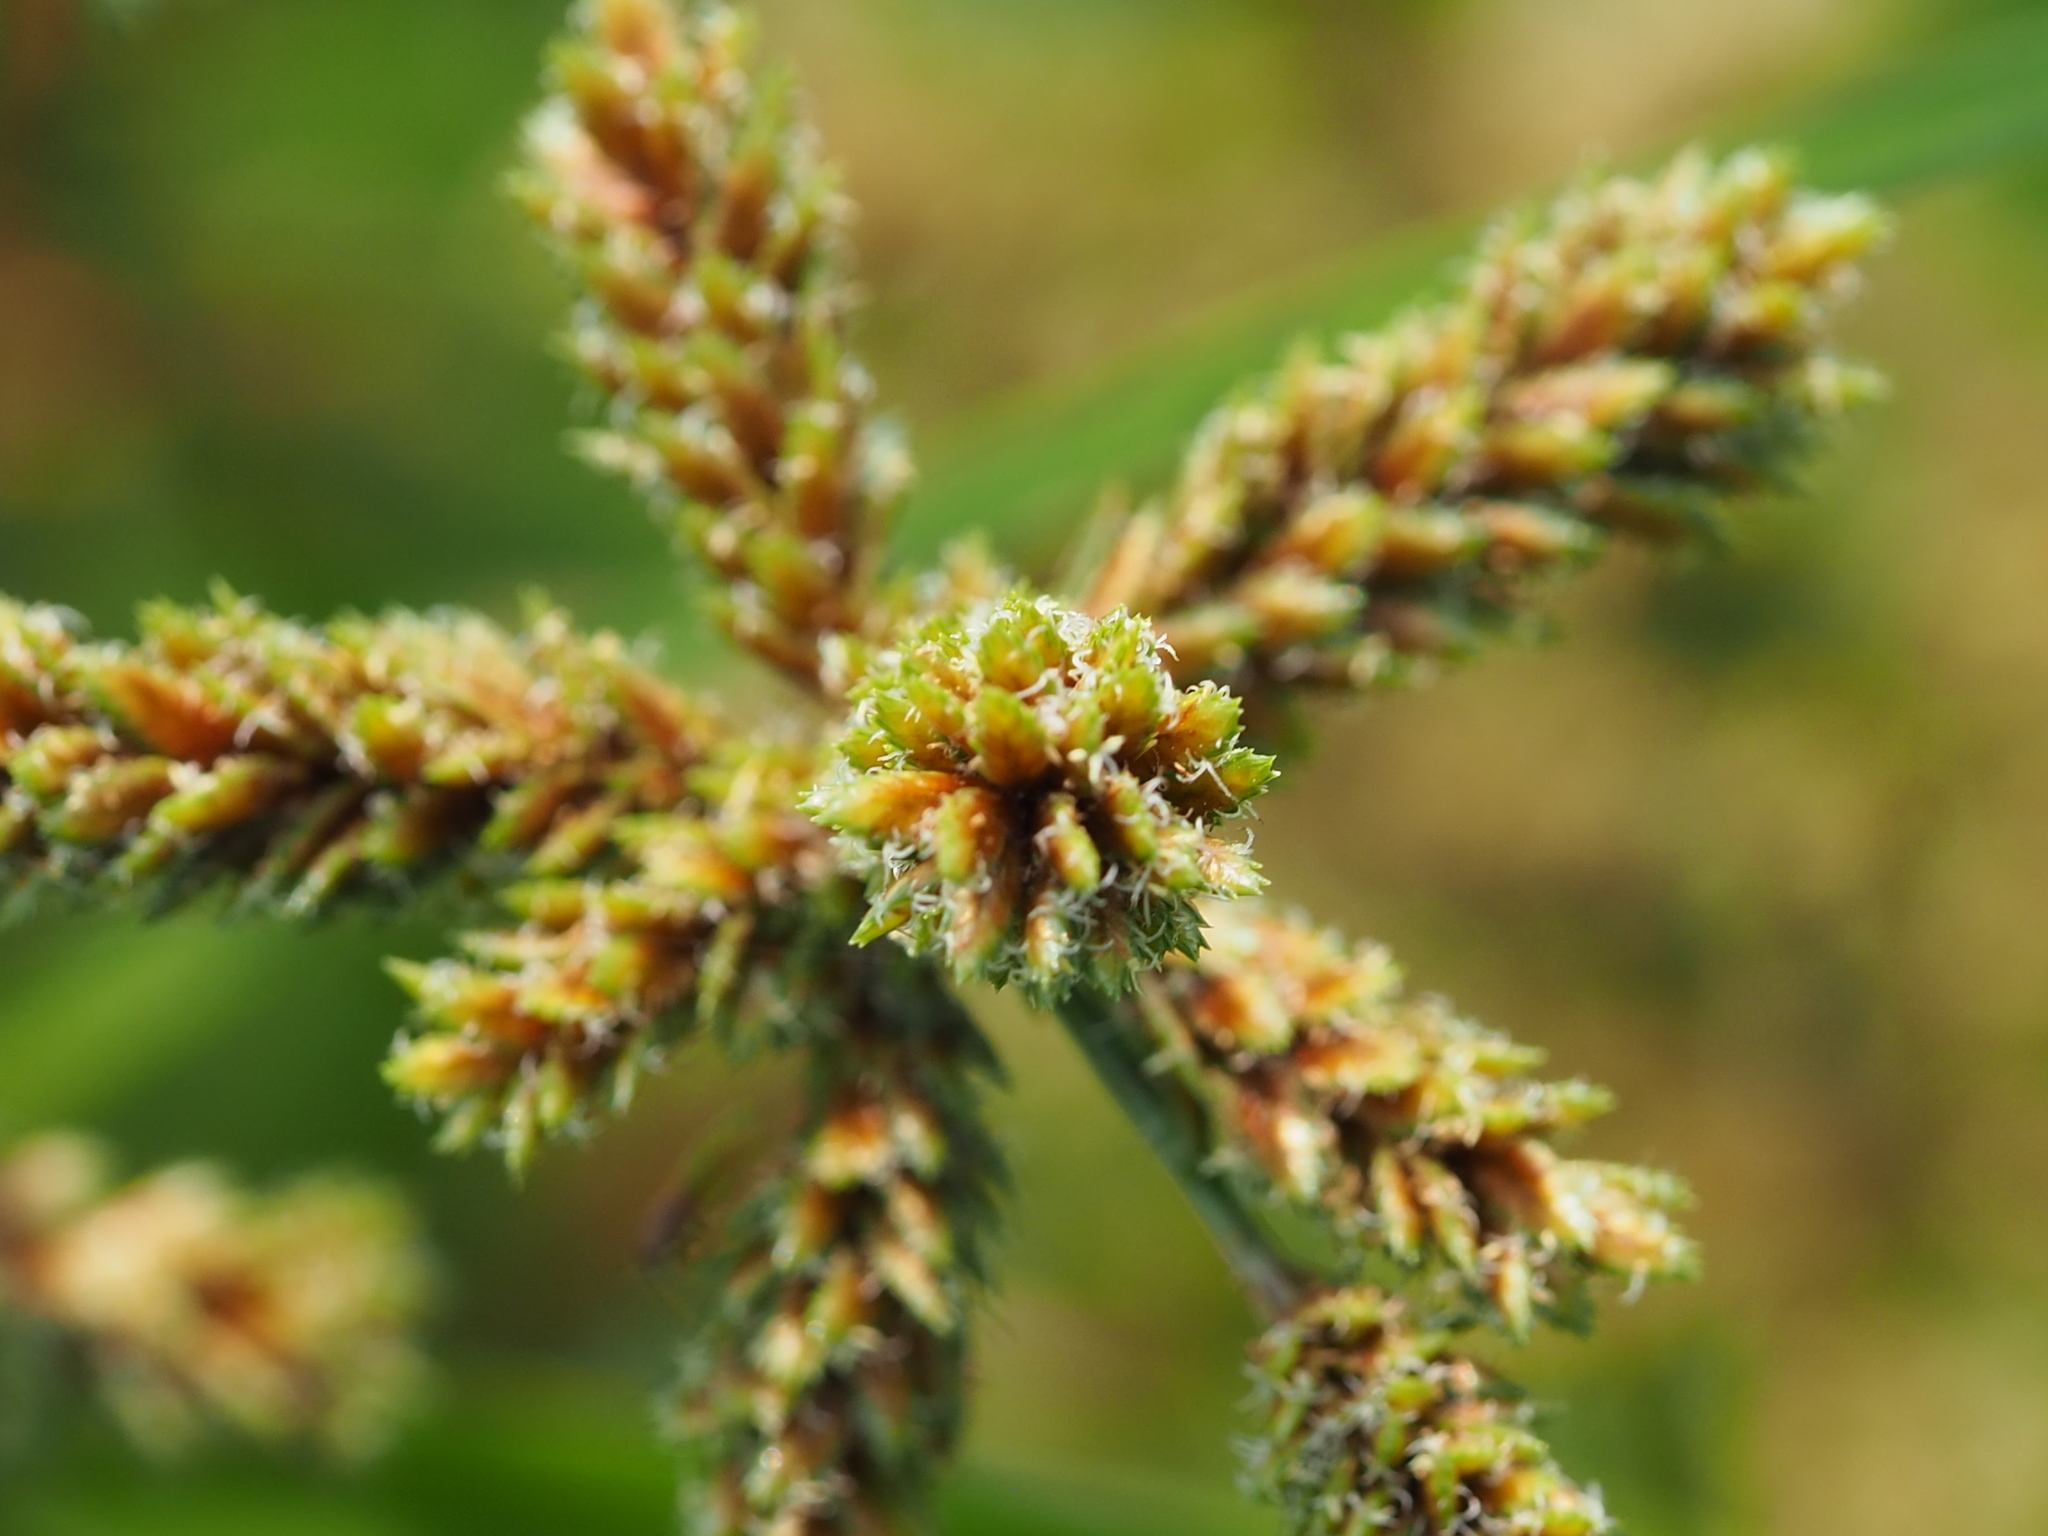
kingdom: Plantae
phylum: Tracheophyta
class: Liliopsida
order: Poales
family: Cyperaceae
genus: Cyperus
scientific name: Cyperus imbricatus
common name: Shingle flatsedge
